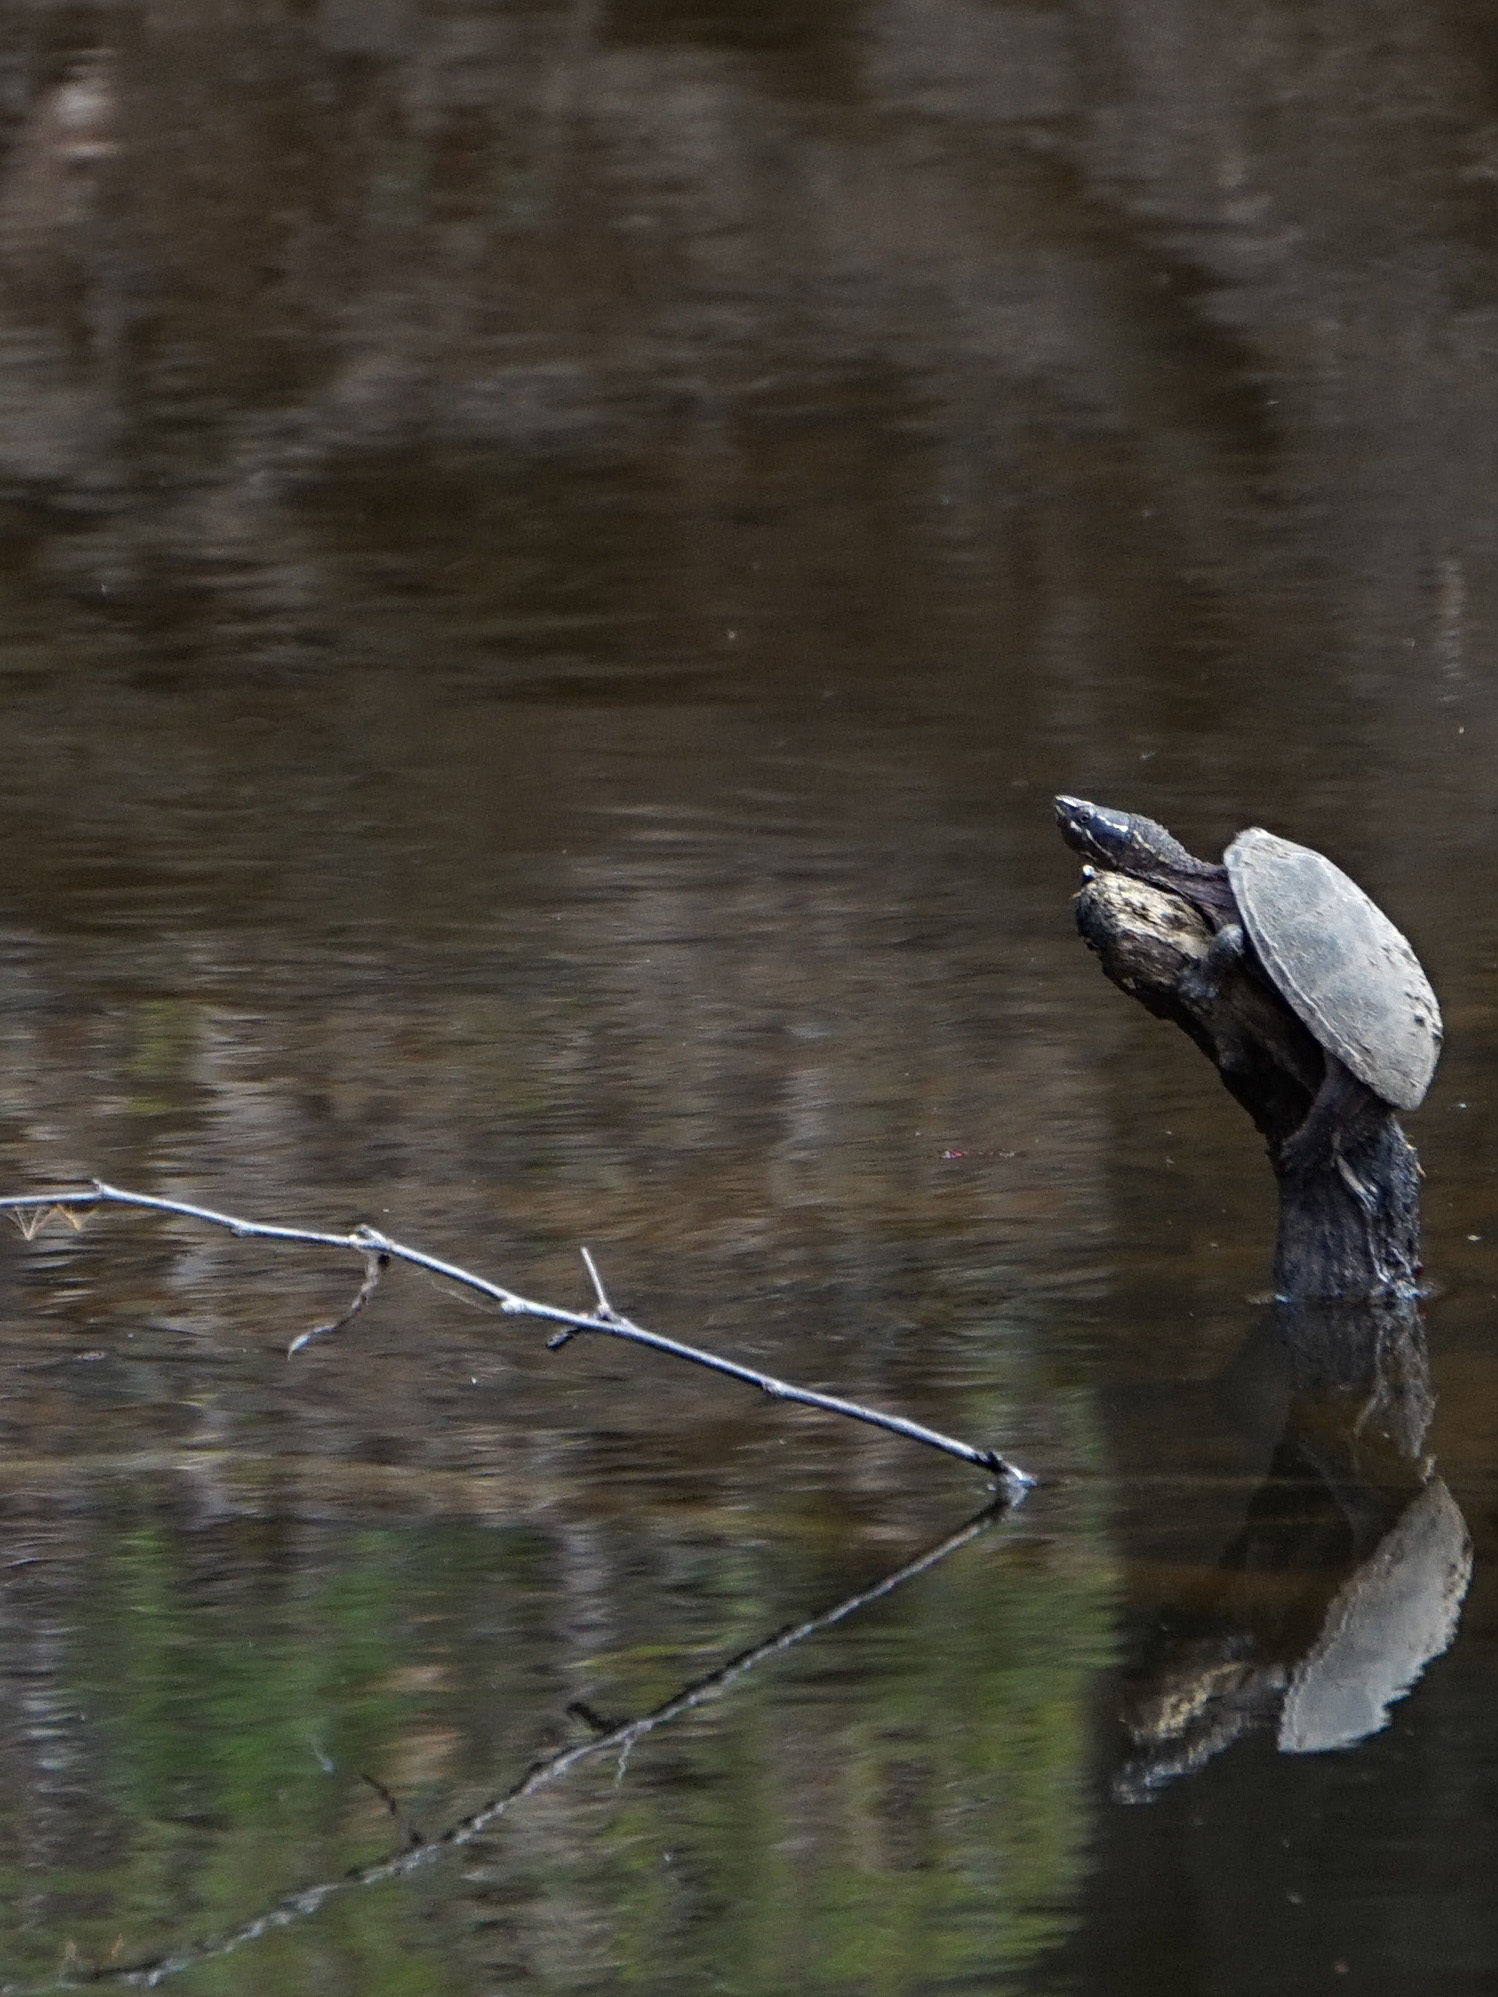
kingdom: Animalia
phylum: Chordata
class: Testudines
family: Kinosternidae
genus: Sternotherus
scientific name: Sternotherus odoratus
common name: Common musk turtle
